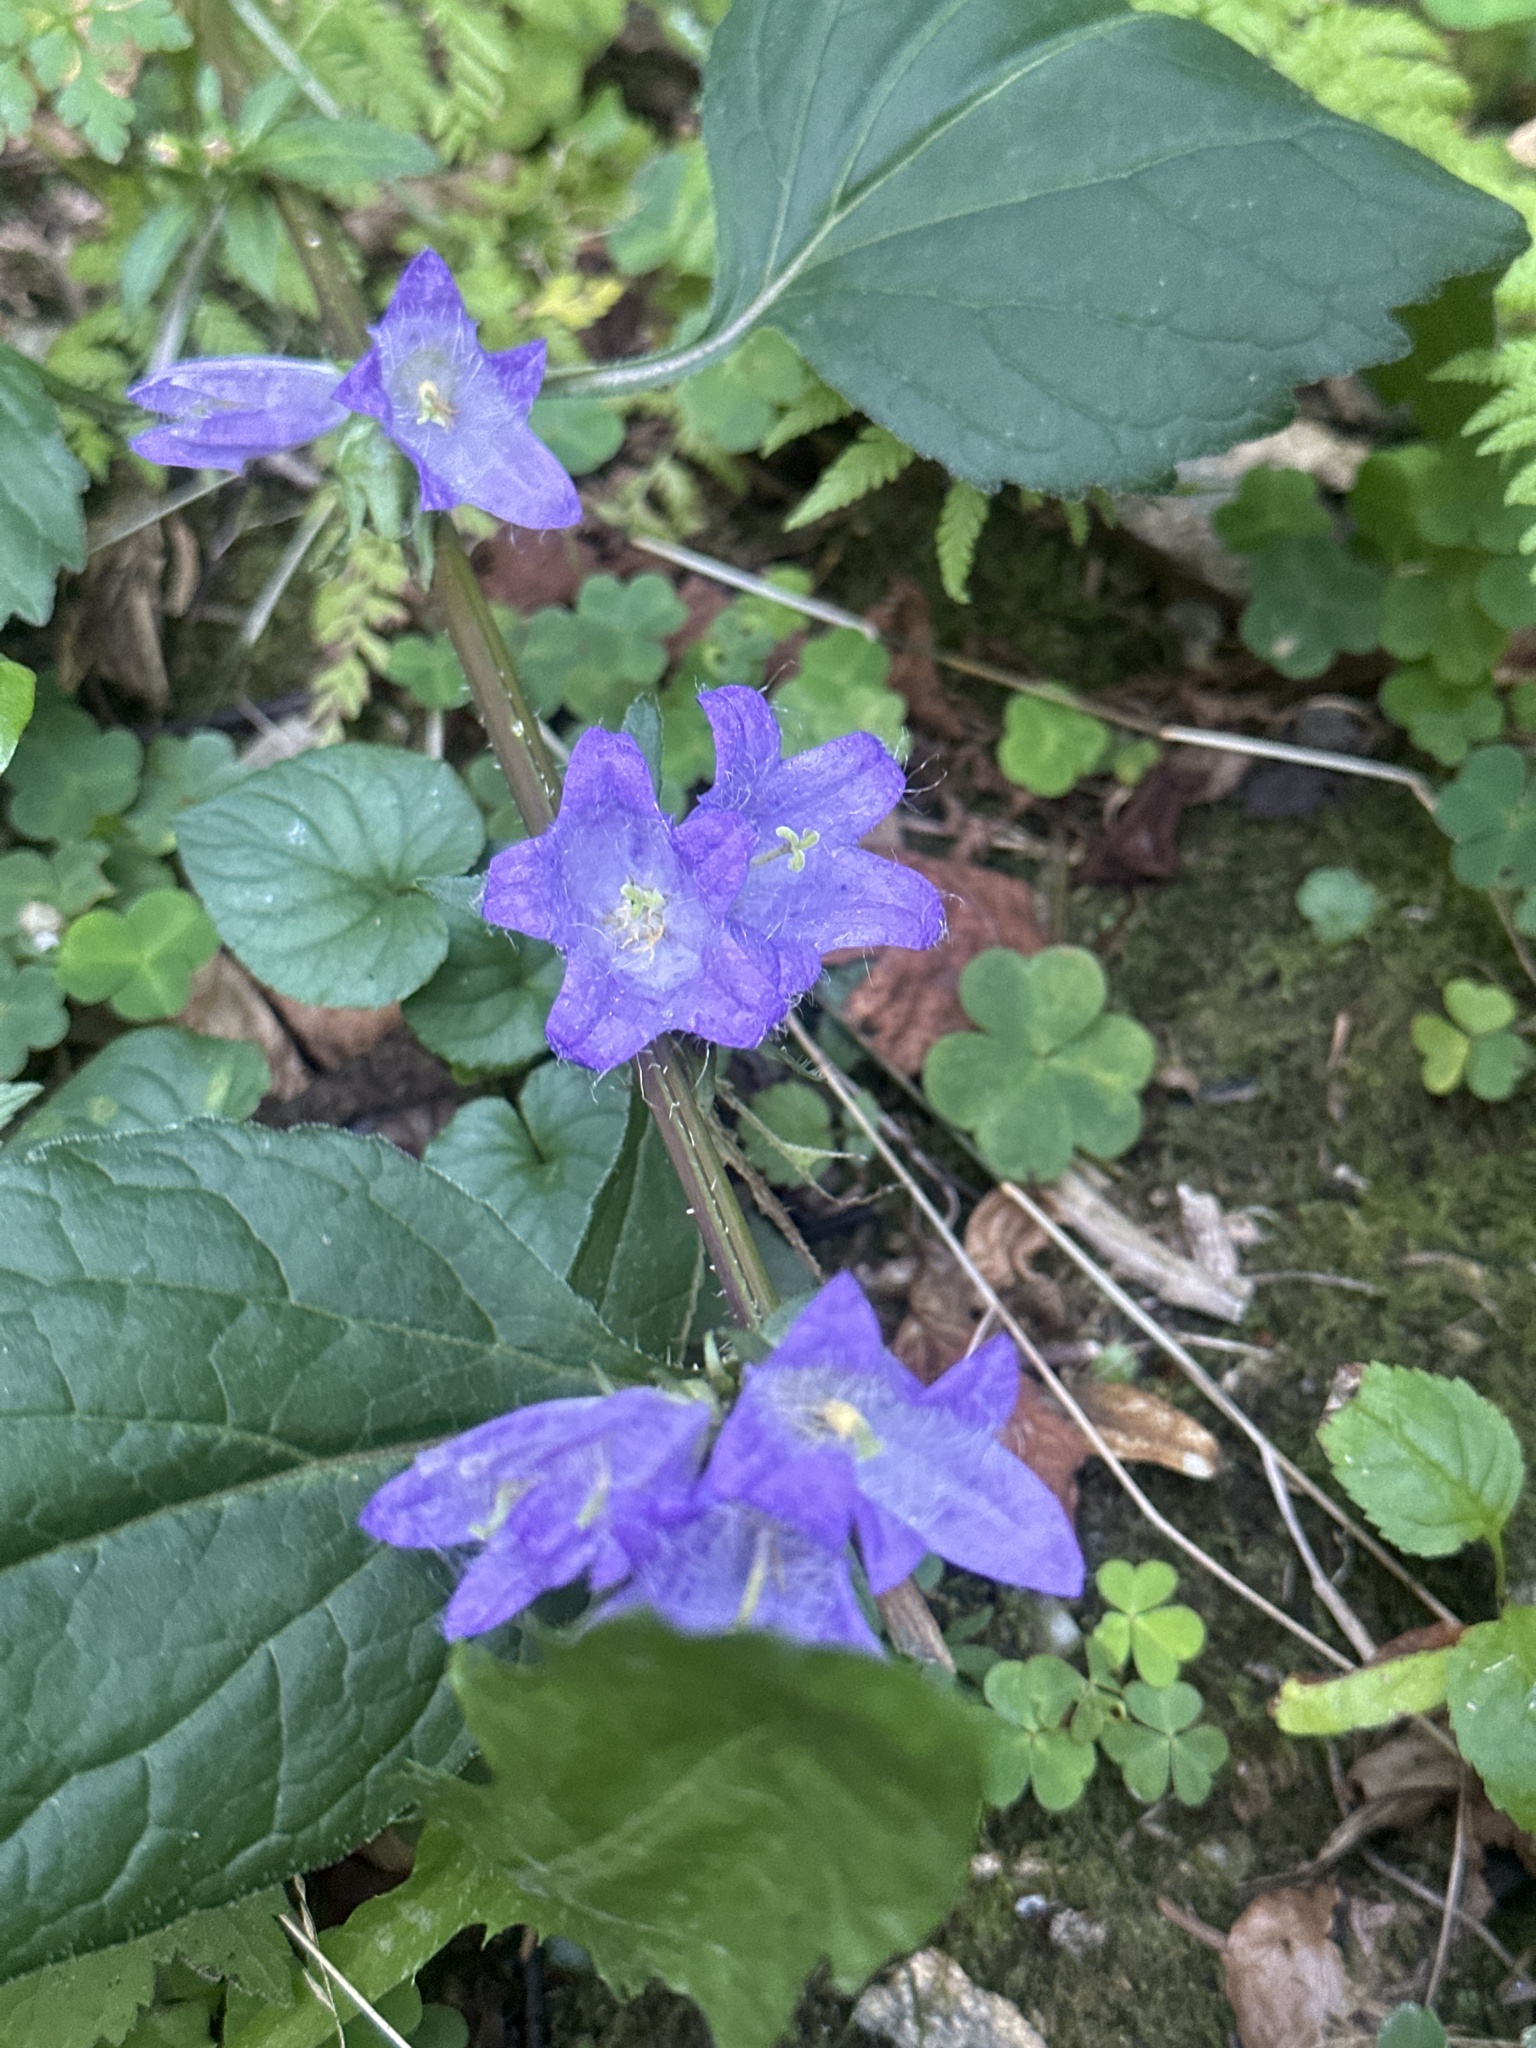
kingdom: Plantae
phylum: Tracheophyta
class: Magnoliopsida
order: Asterales
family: Campanulaceae
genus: Campanula
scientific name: Campanula trachelium
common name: Nettle-leaved bellflower
